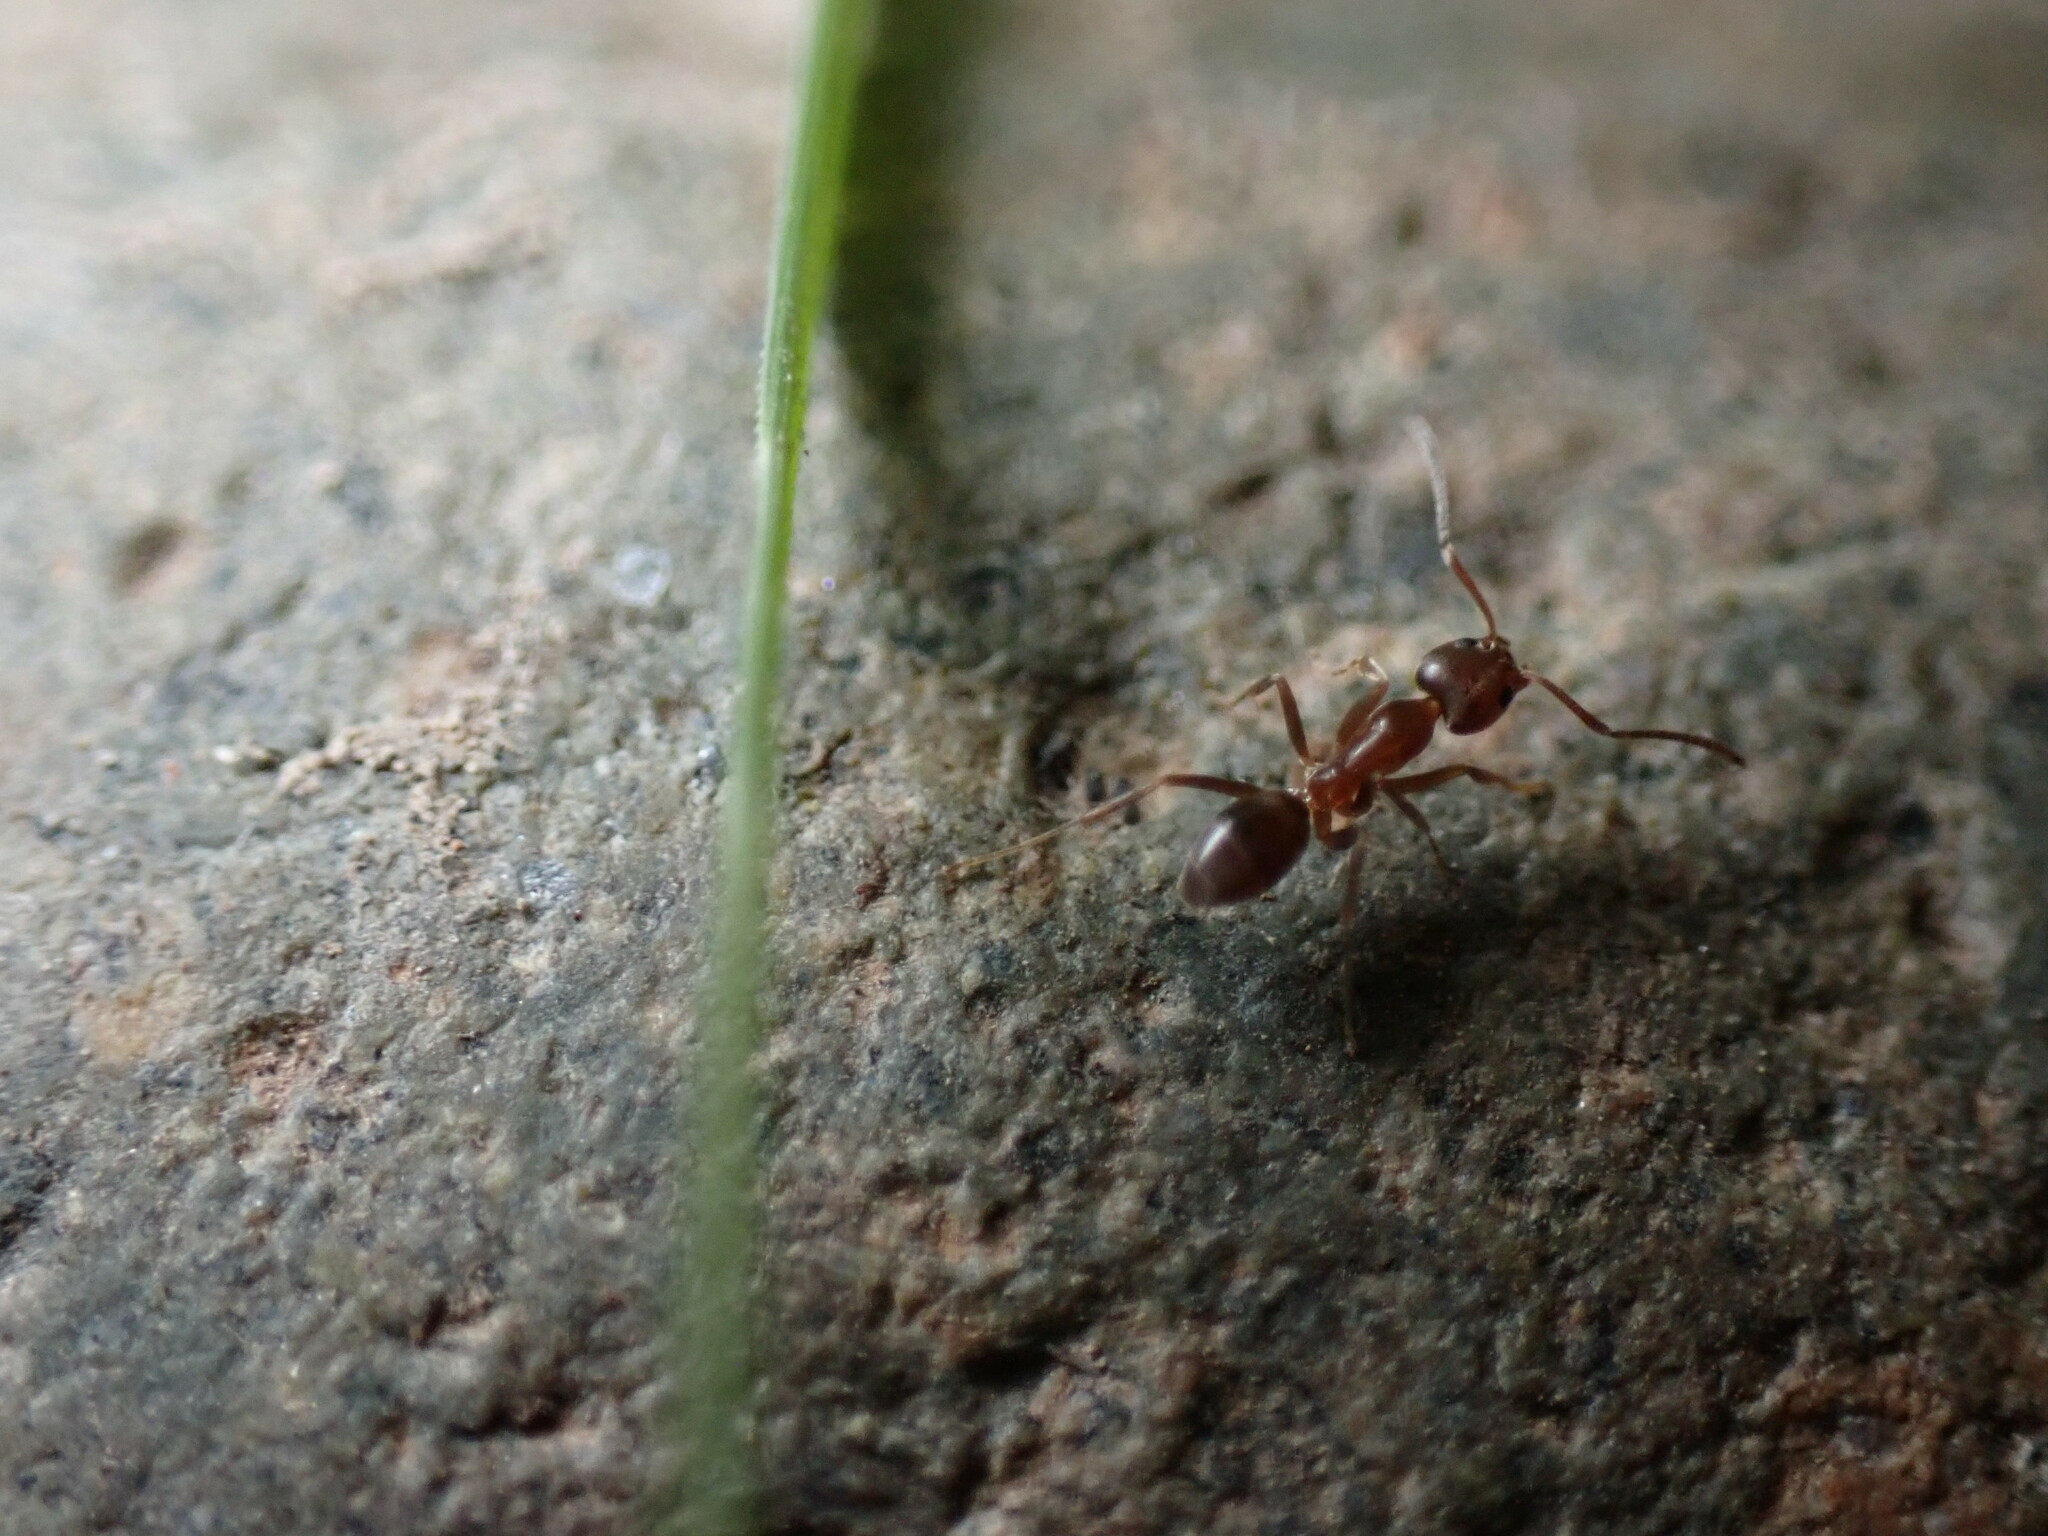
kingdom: Animalia
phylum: Arthropoda
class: Insecta
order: Hymenoptera
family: Formicidae
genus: Linepithema
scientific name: Linepithema humile
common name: Argentine ant
